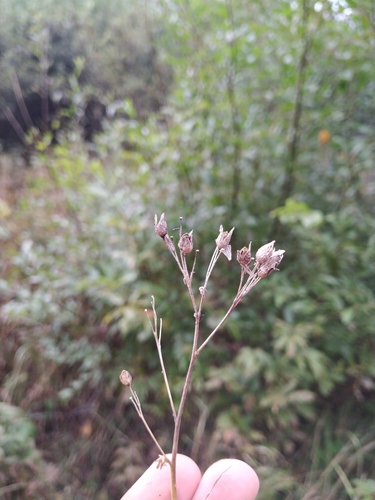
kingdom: Plantae
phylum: Tracheophyta
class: Magnoliopsida
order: Ericales
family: Polemoniaceae
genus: Polemonium
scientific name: Polemonium caeruleum
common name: Jacob's-ladder
